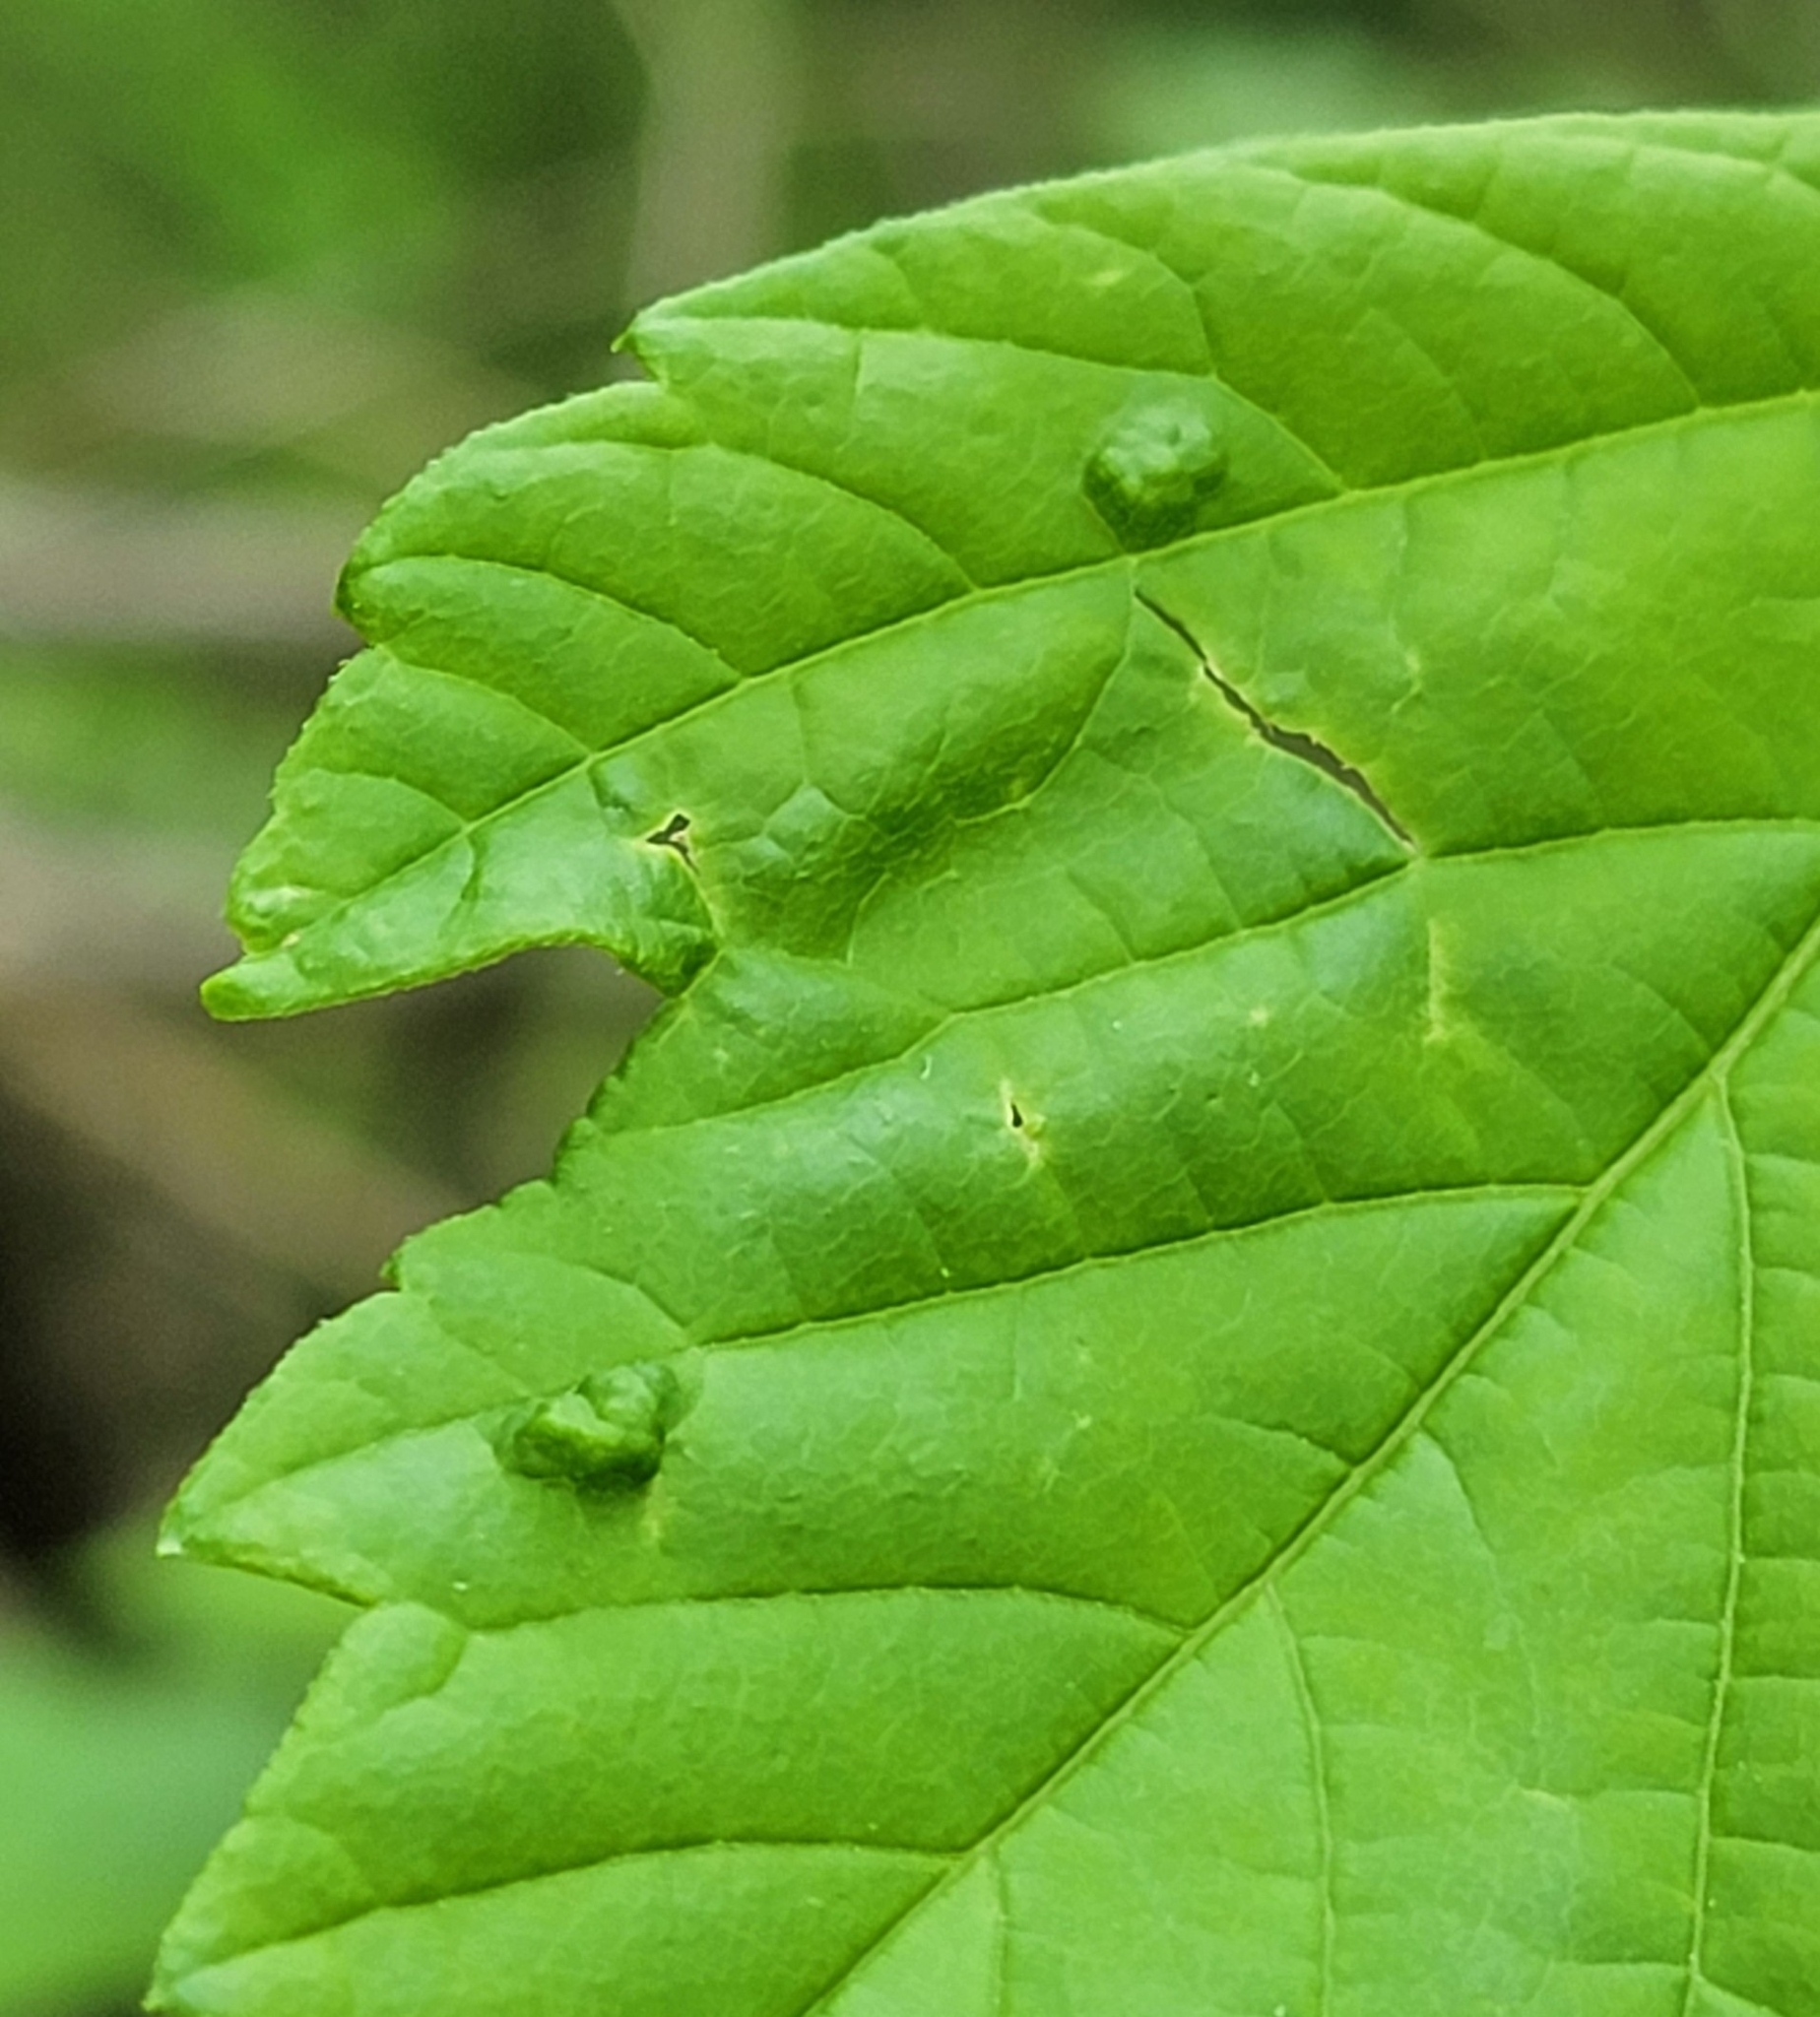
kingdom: Animalia
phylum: Arthropoda
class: Arachnida
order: Trombidiformes
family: Eriophyidae
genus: Aceria
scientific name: Aceria
